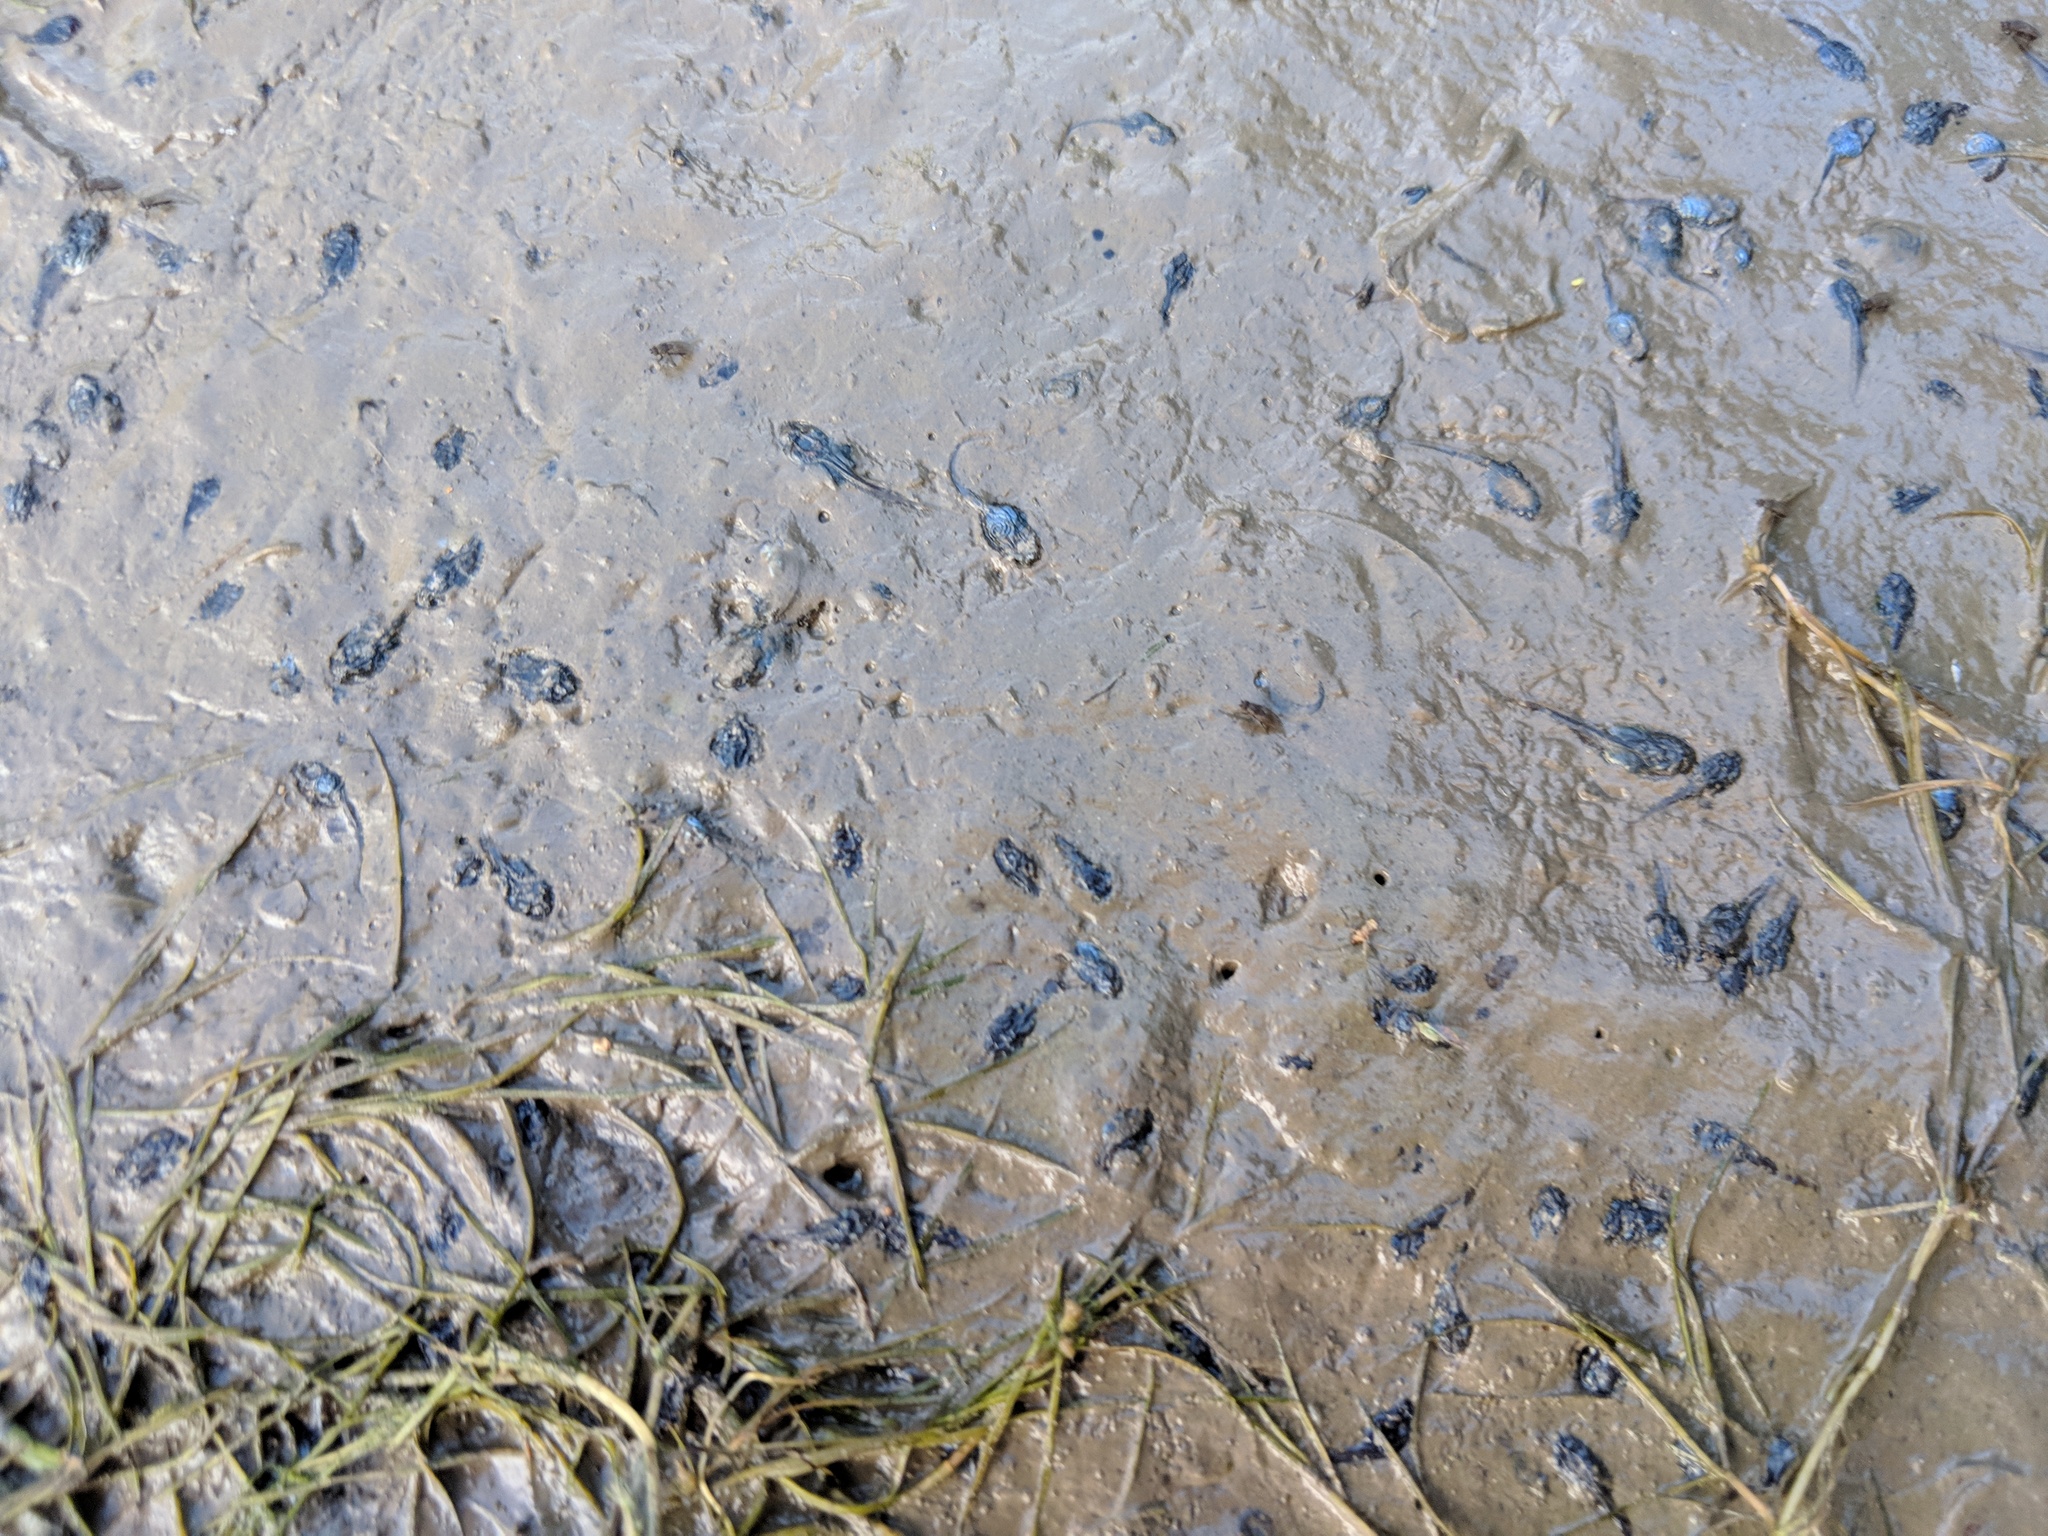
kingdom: Animalia
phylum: Chordata
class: Amphibia
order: Anura
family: Hylidae
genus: Pseudacris
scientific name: Pseudacris regilla
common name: Pacific chorus frog
